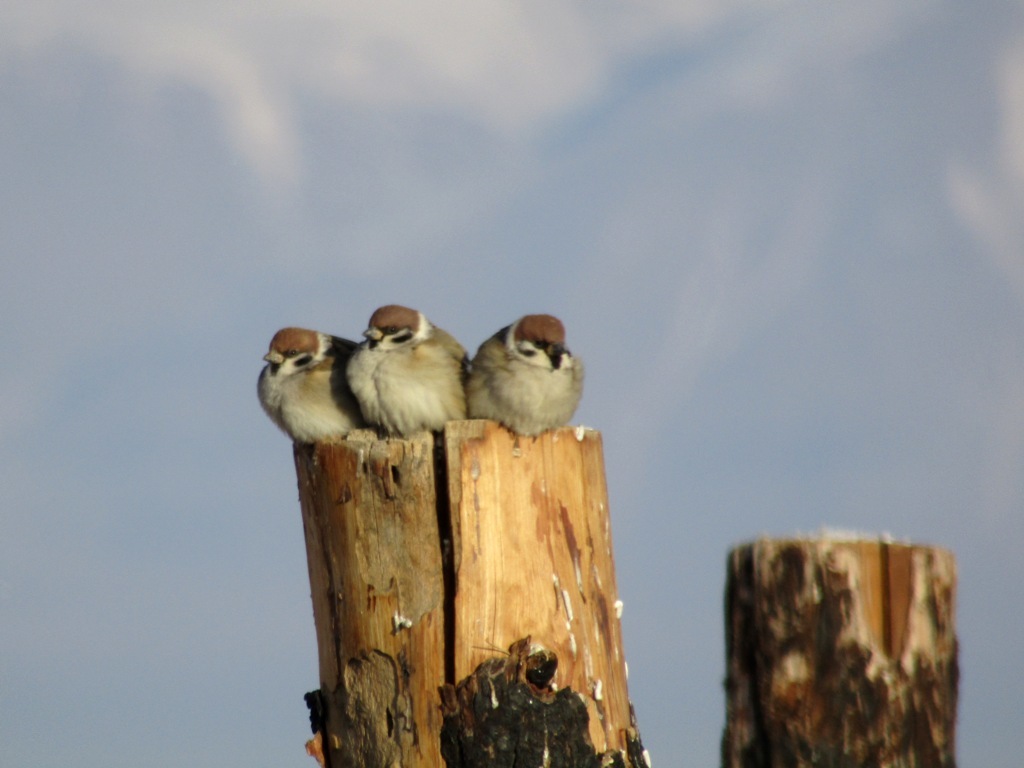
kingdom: Animalia
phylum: Chordata
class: Aves
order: Passeriformes
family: Passeridae
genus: Passer
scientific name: Passer montanus
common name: Eurasian tree sparrow
